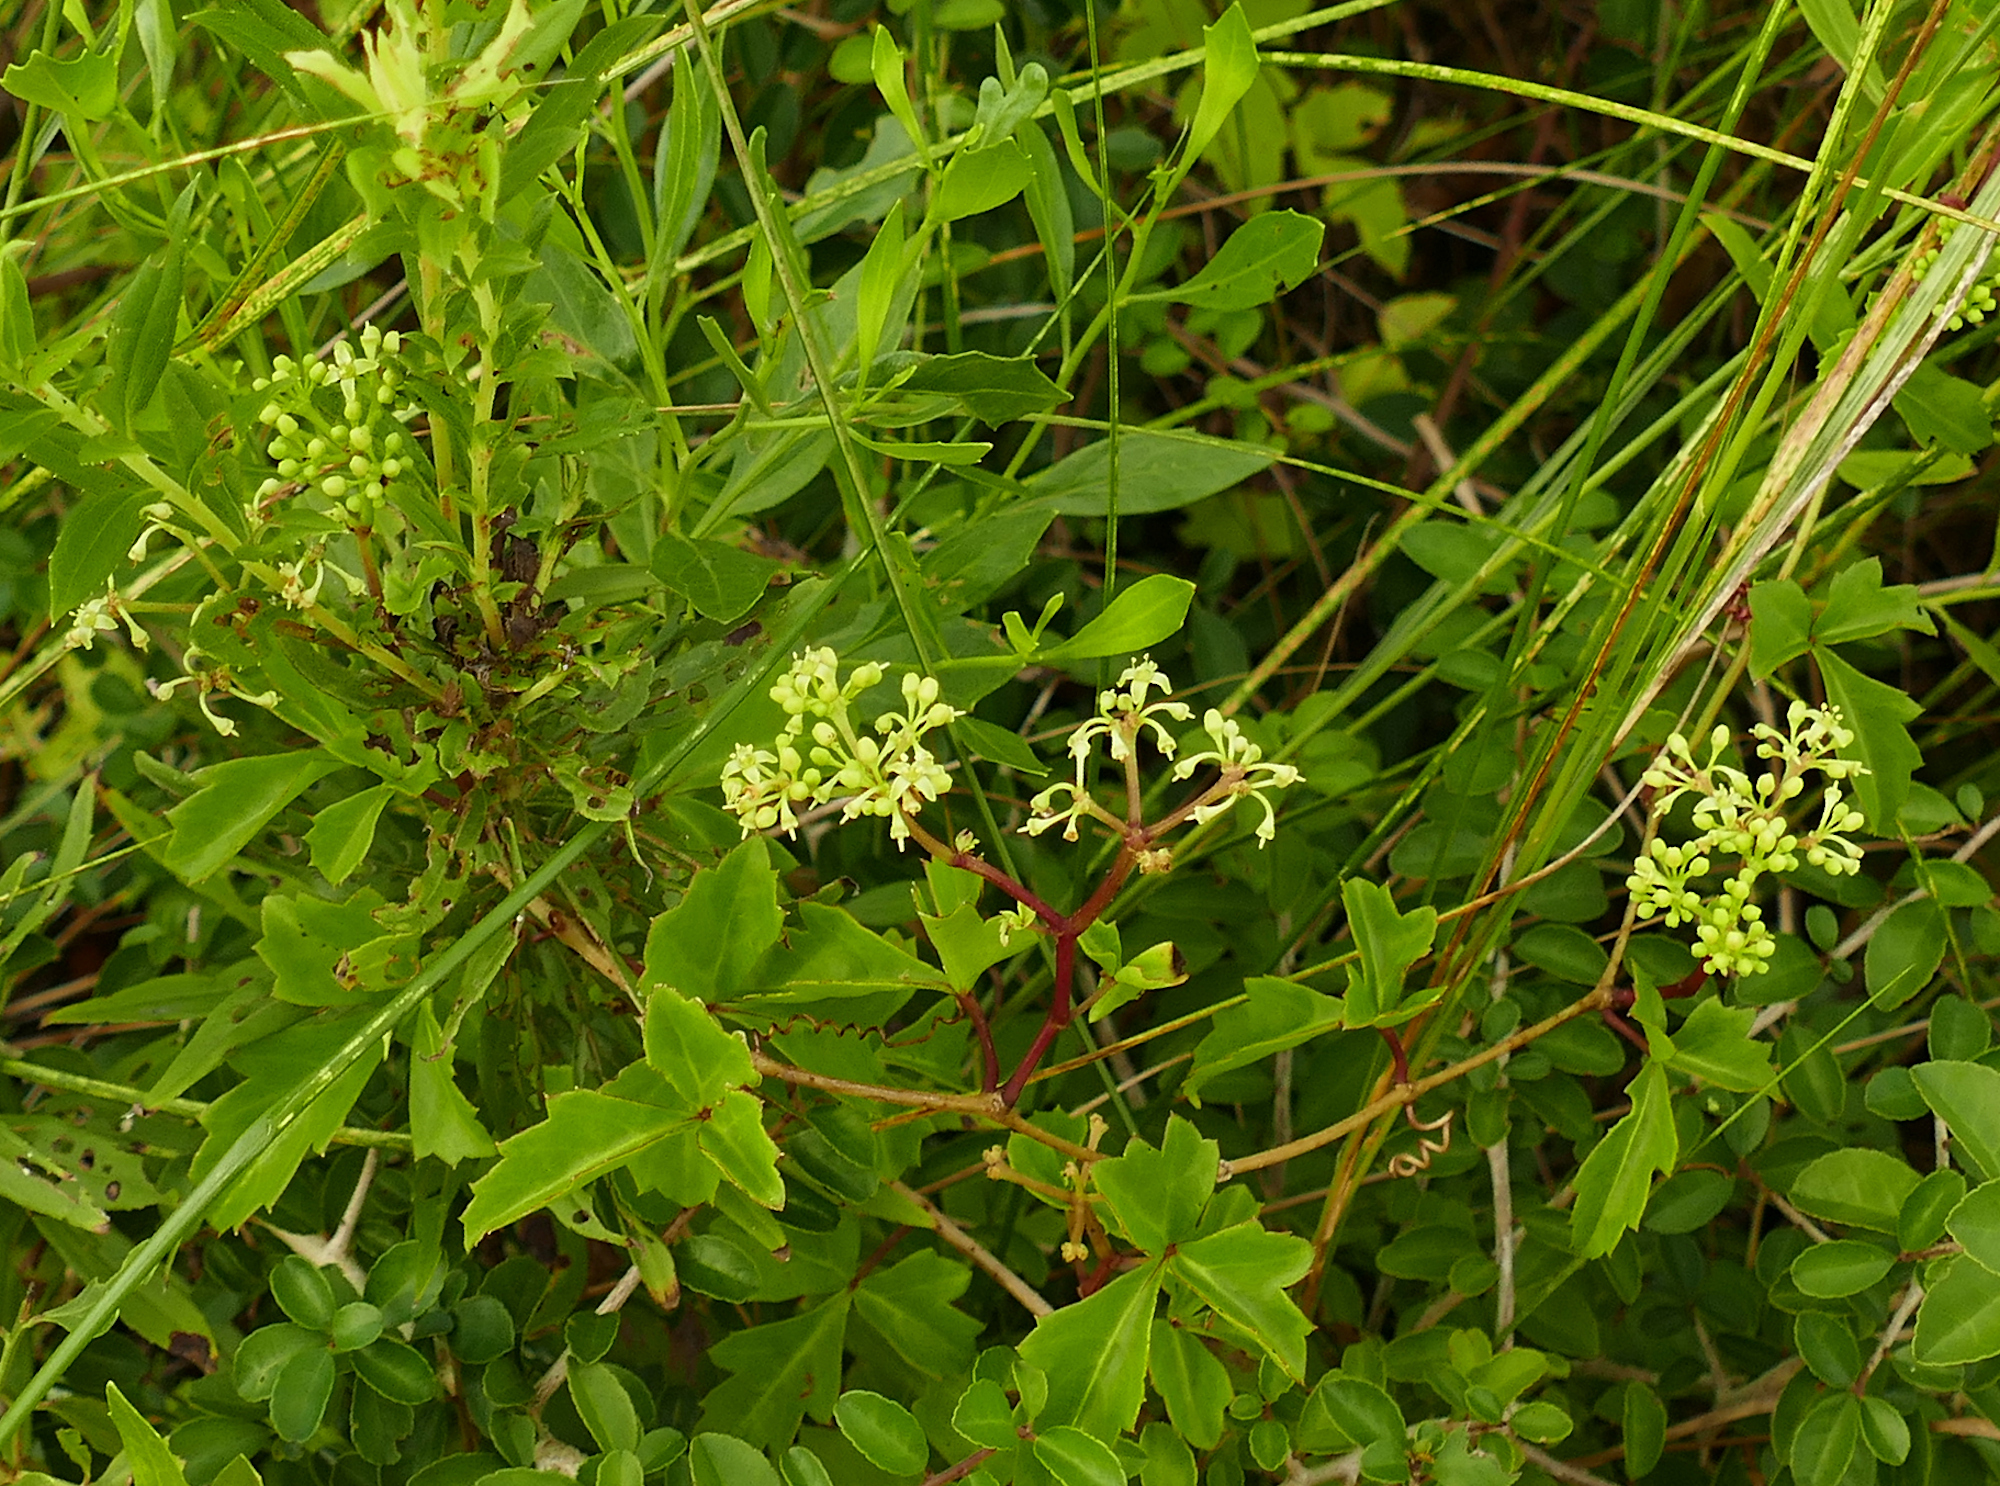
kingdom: Plantae
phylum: Tracheophyta
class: Magnoliopsida
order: Vitales
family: Vitaceae
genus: Cissus
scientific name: Cissus trifoliata
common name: Vine-sorrel
